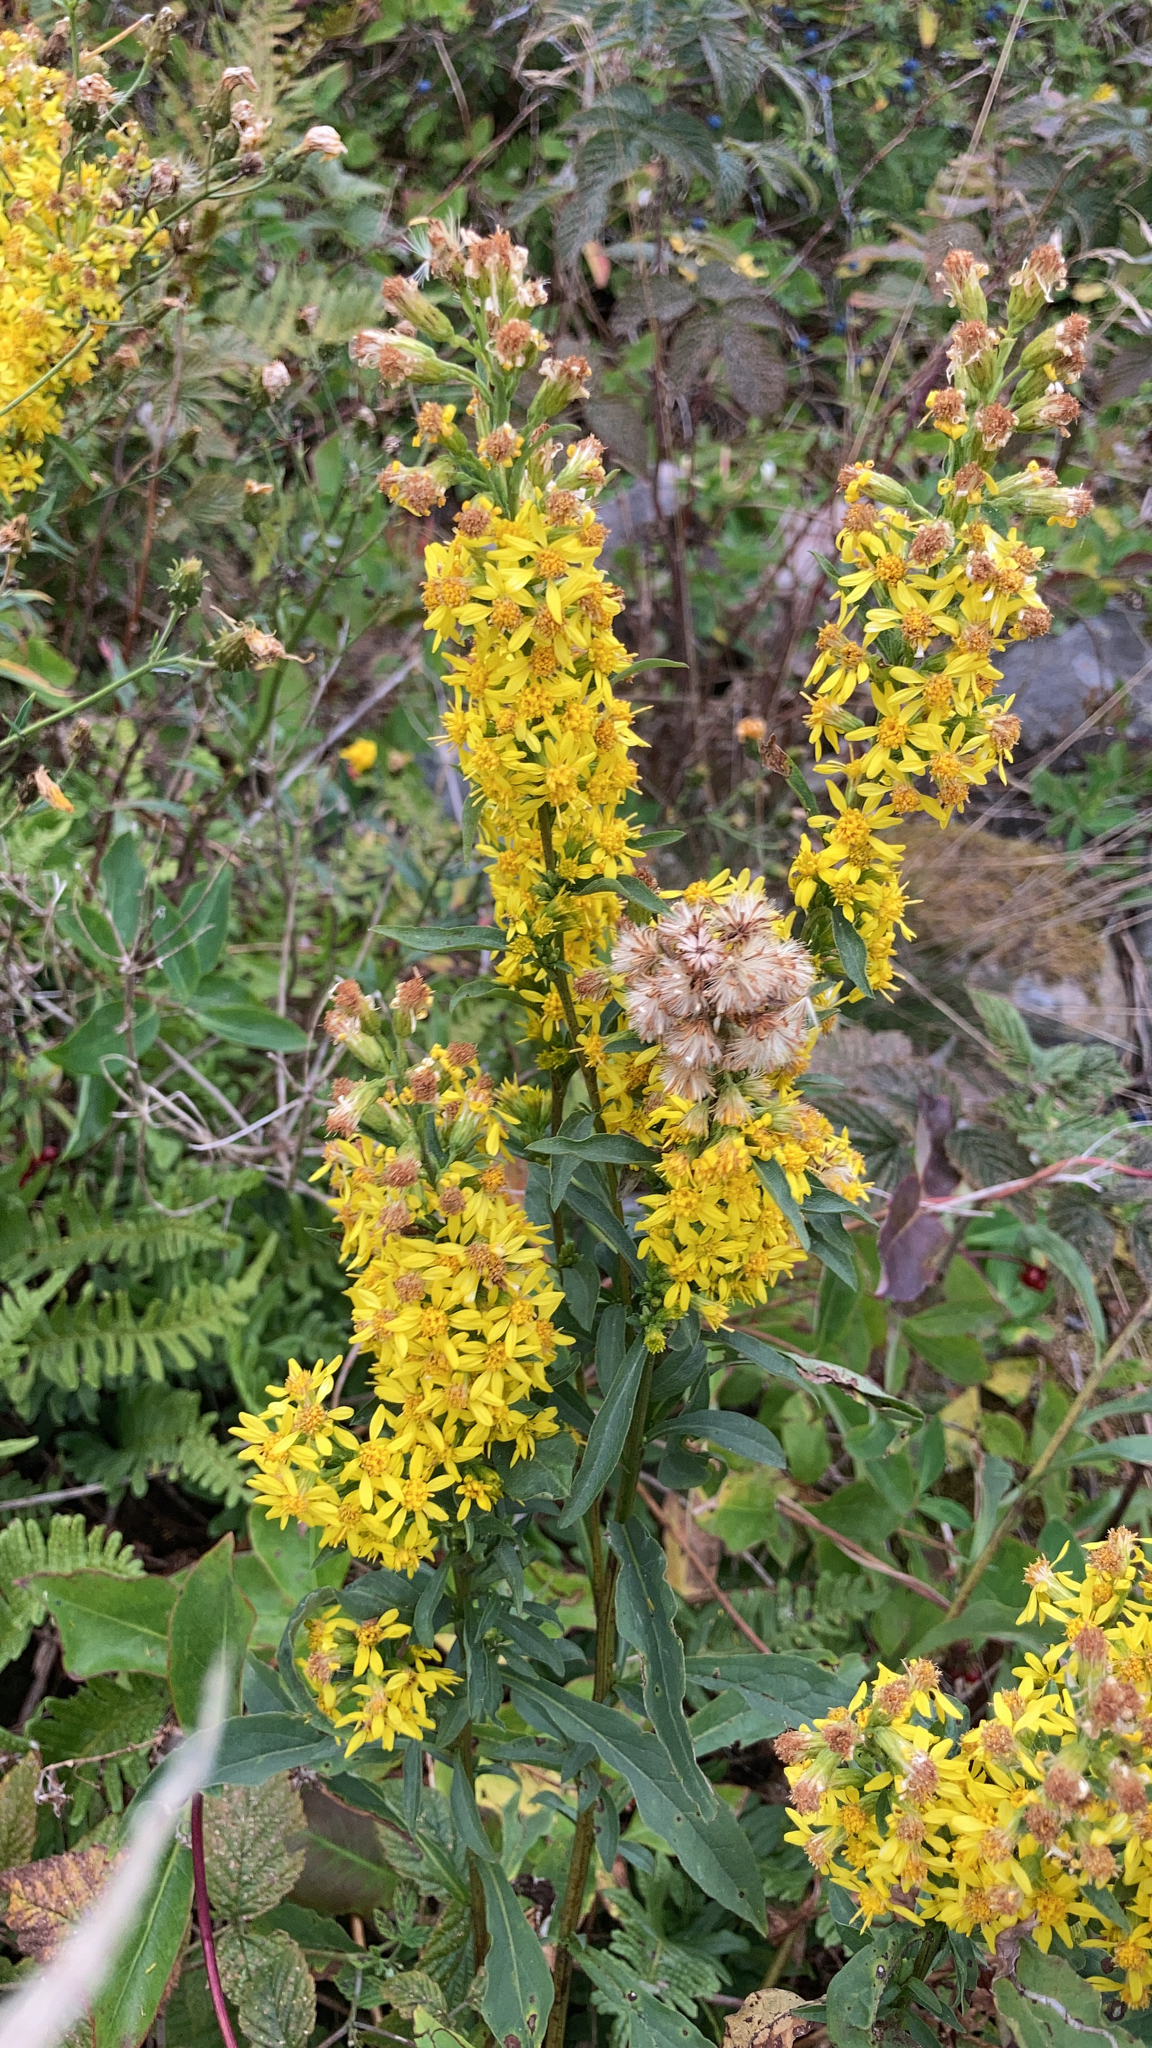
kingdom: Plantae
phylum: Tracheophyta
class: Magnoliopsida
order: Asterales
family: Asteraceae
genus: Solidago
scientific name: Solidago virgaurea
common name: Goldenrod
